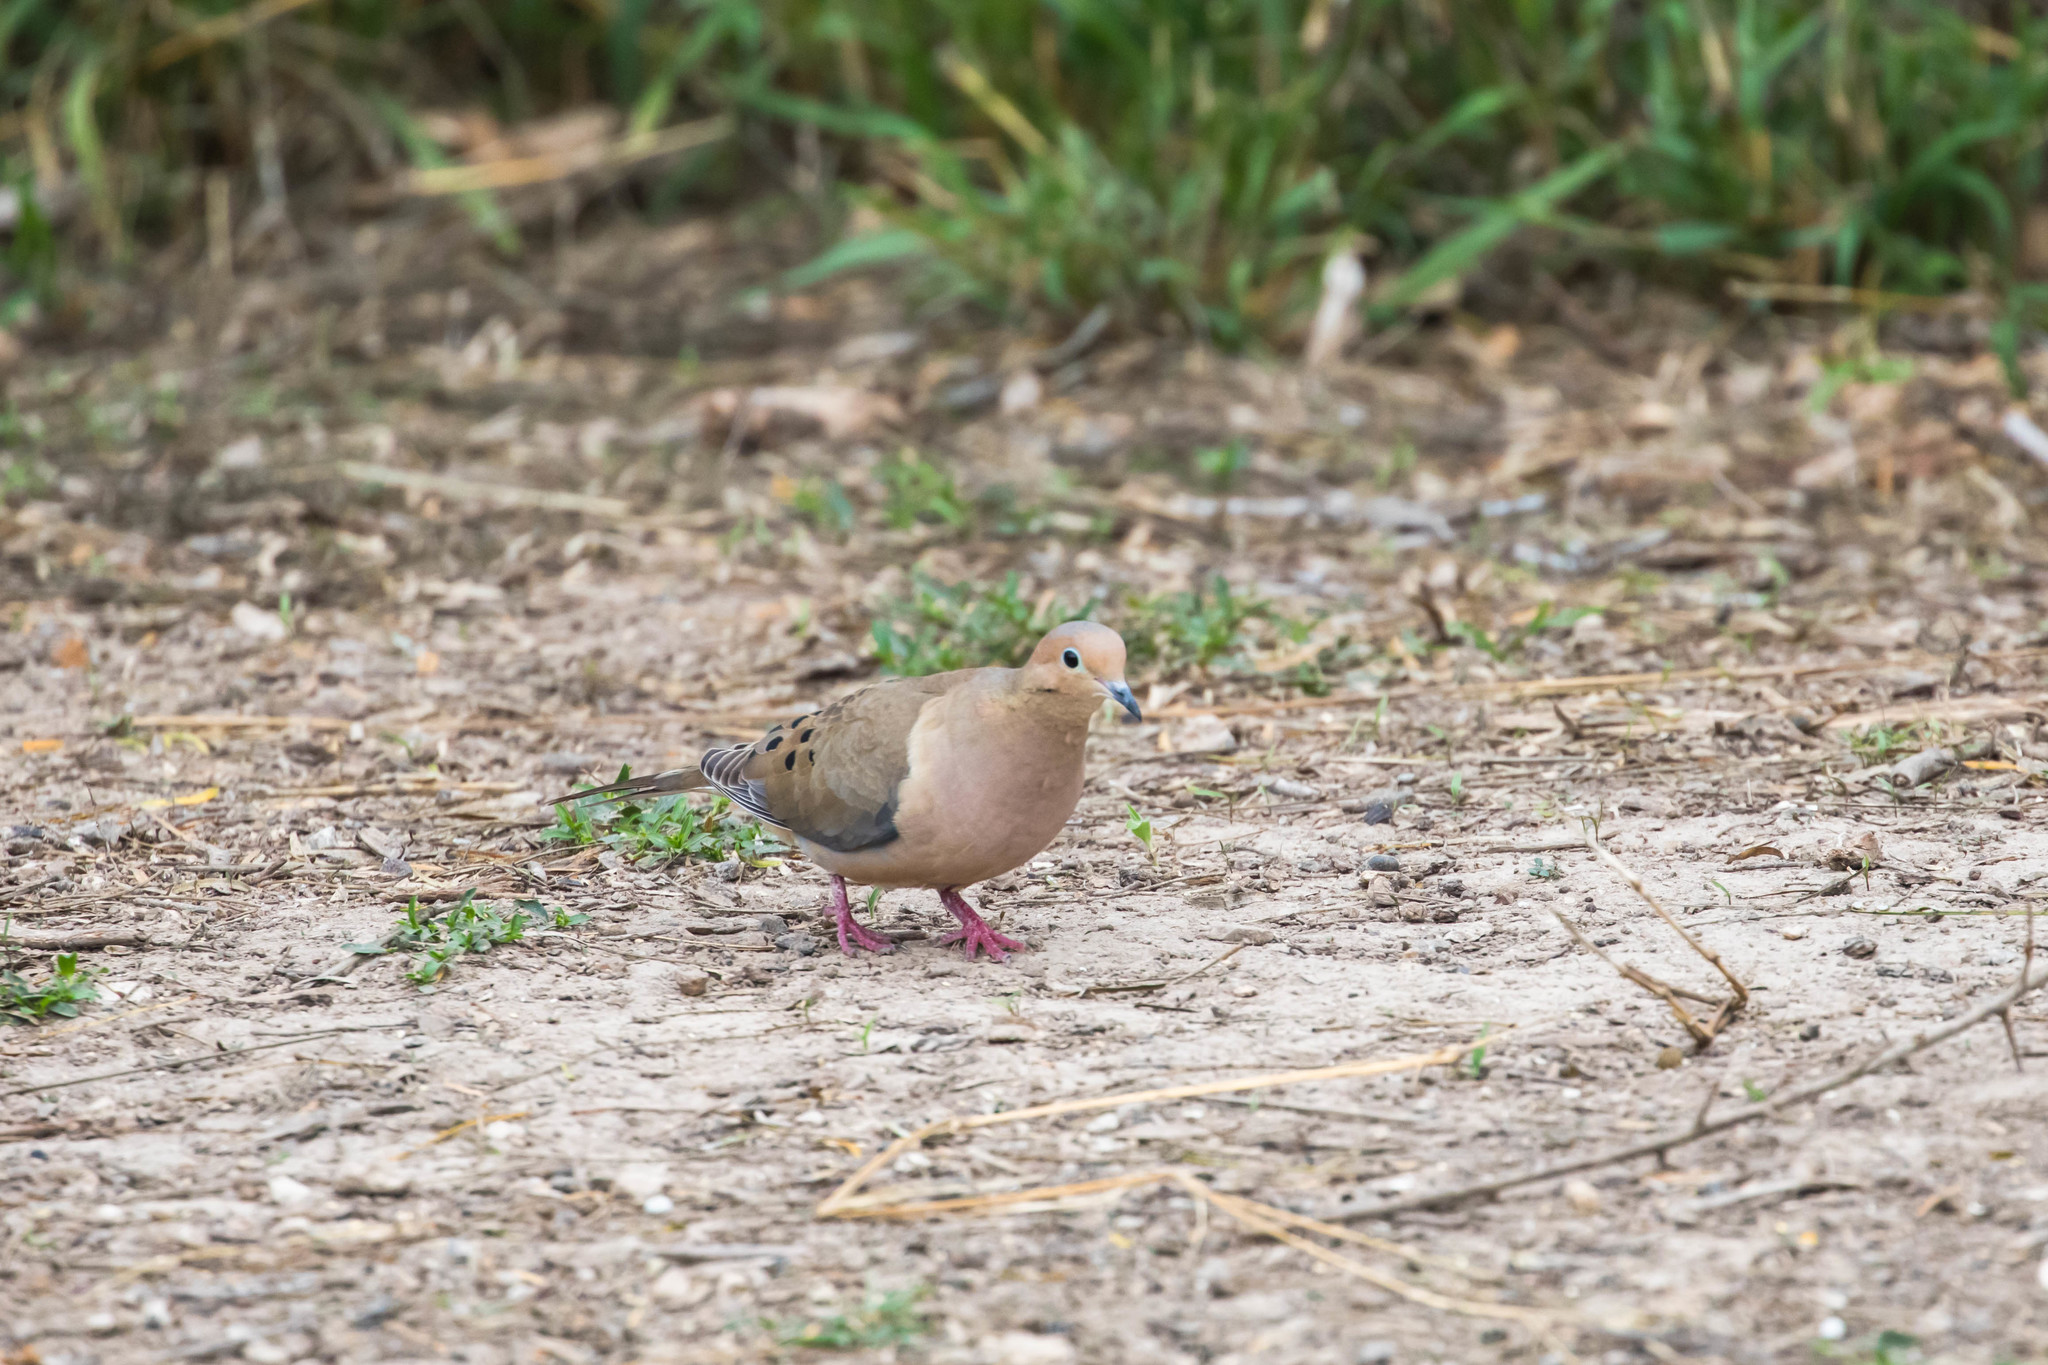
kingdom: Animalia
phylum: Chordata
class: Aves
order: Columbiformes
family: Columbidae
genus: Zenaida
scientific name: Zenaida macroura
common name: Mourning dove
